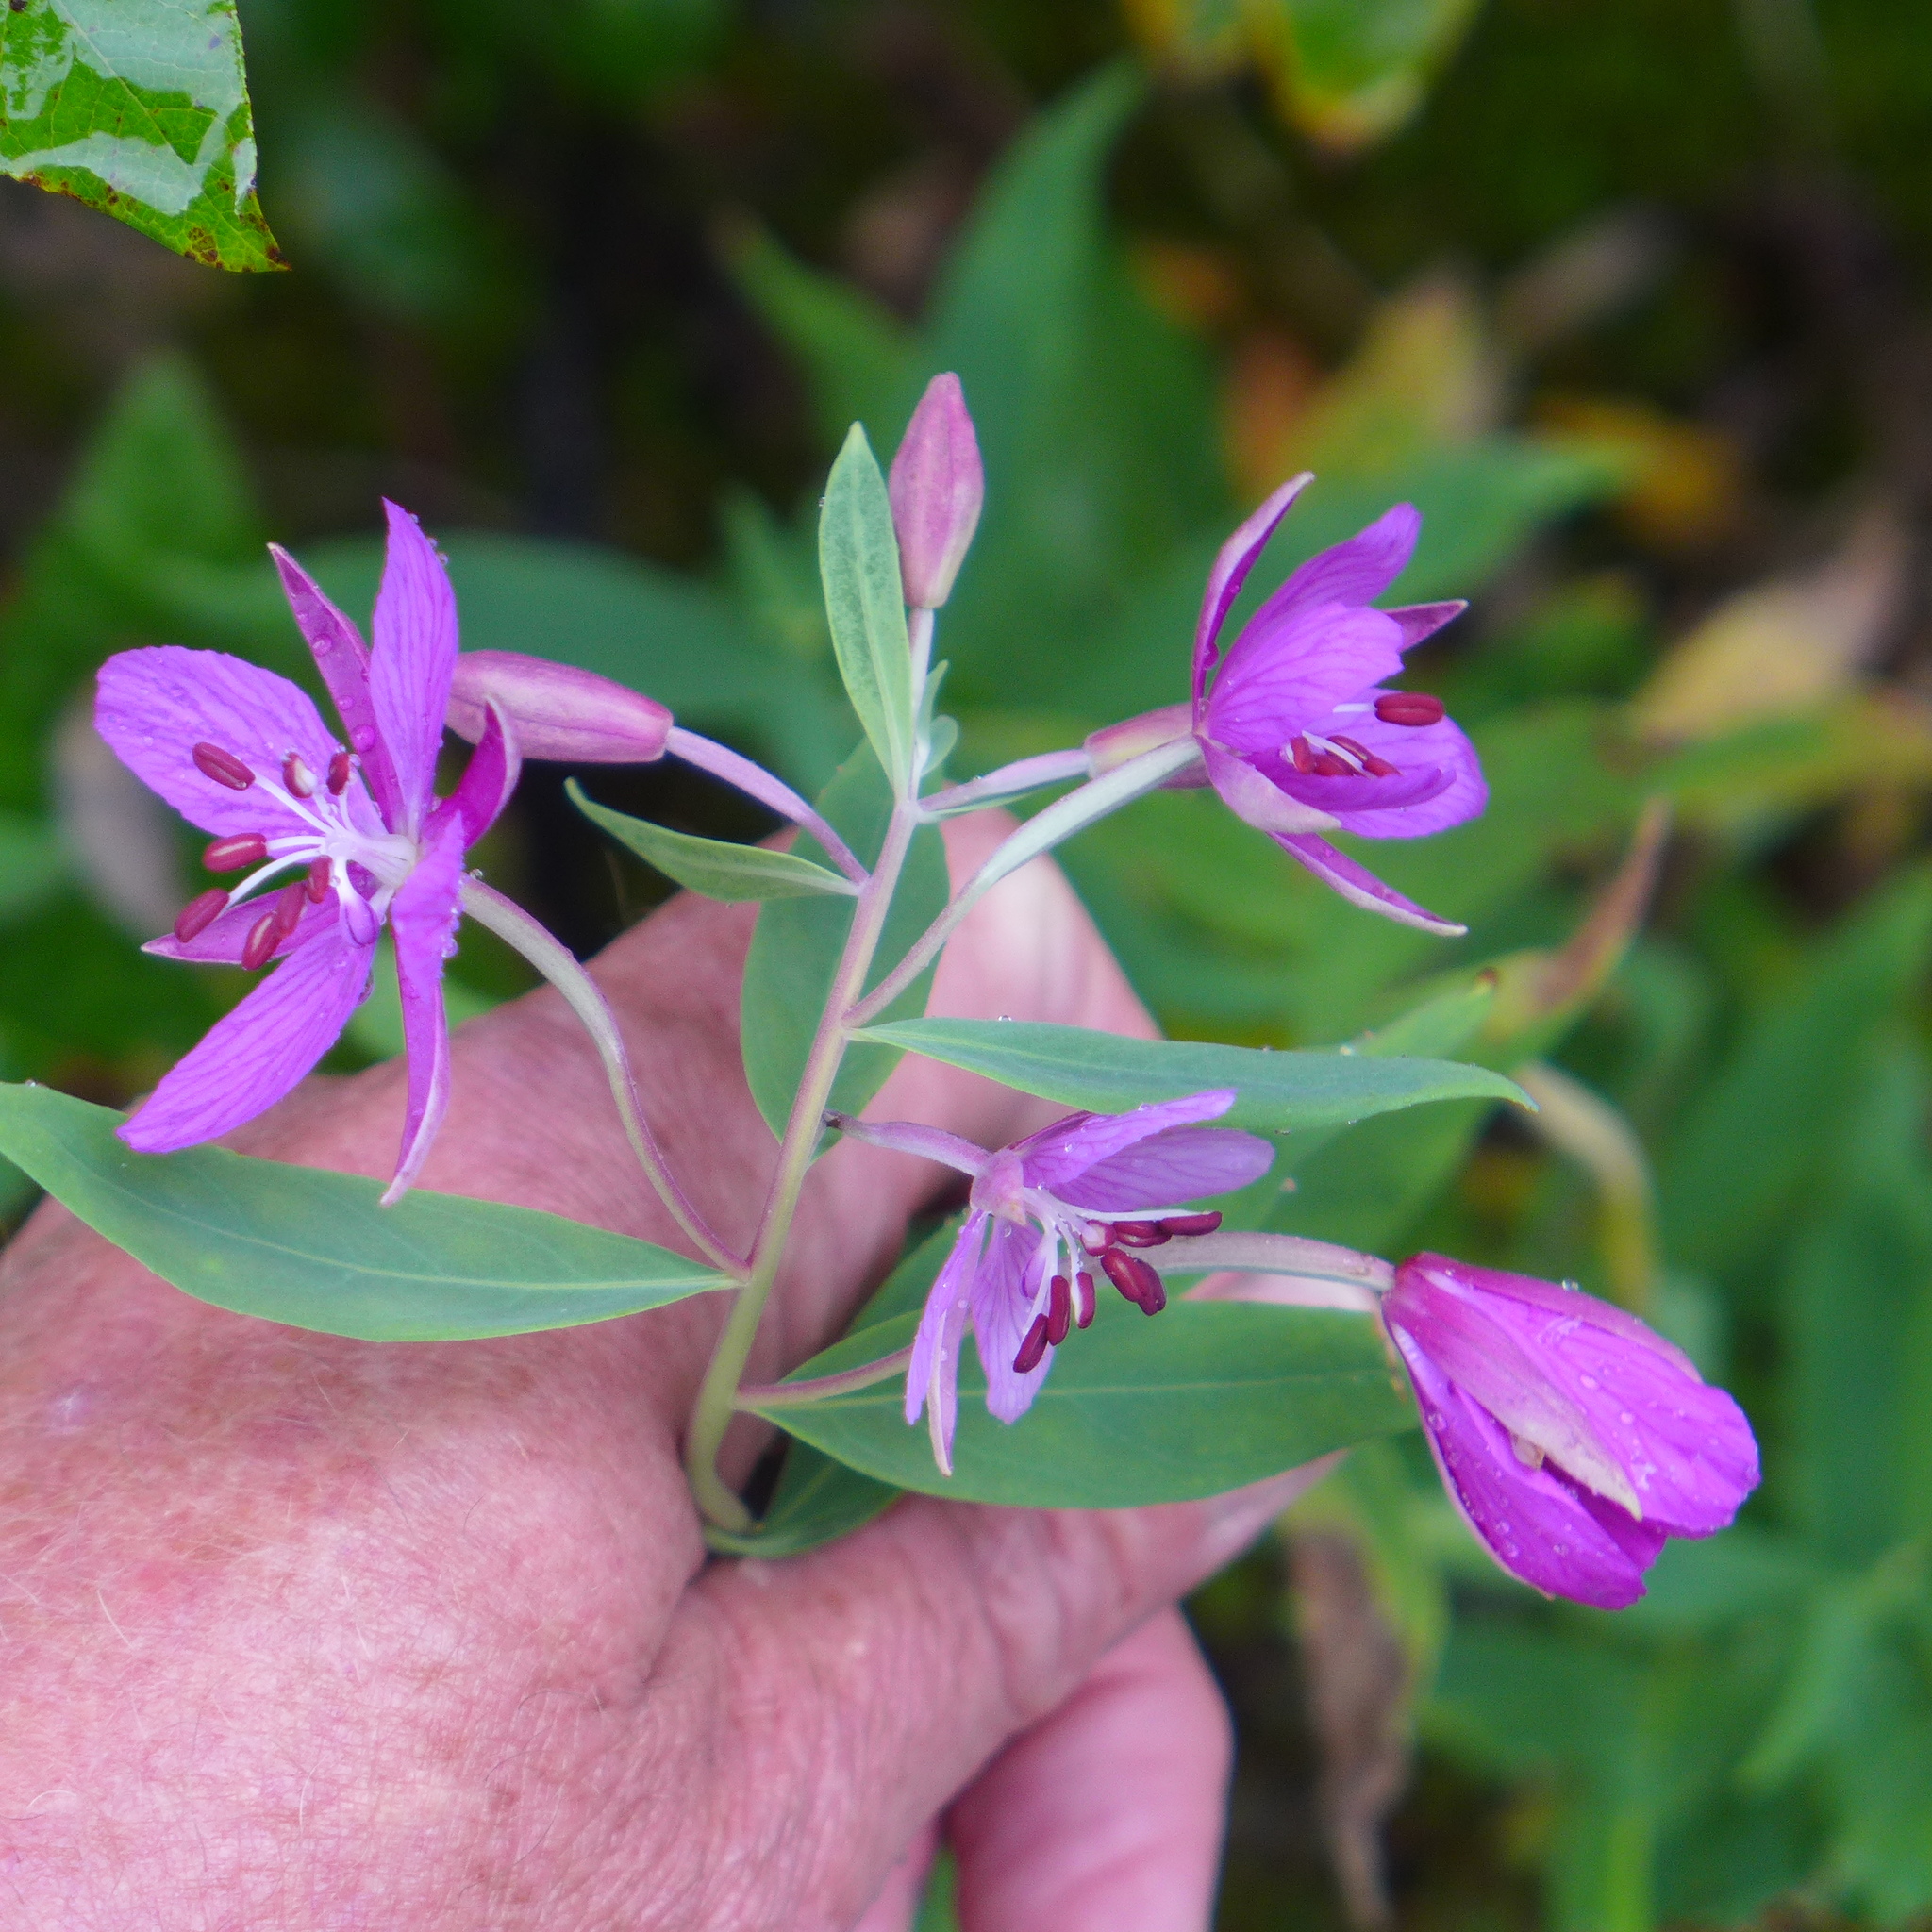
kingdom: Plantae
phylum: Tracheophyta
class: Magnoliopsida
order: Myrtales
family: Onagraceae
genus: Chamaenerion
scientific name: Chamaenerion latifolium
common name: Dwarf fireweed
